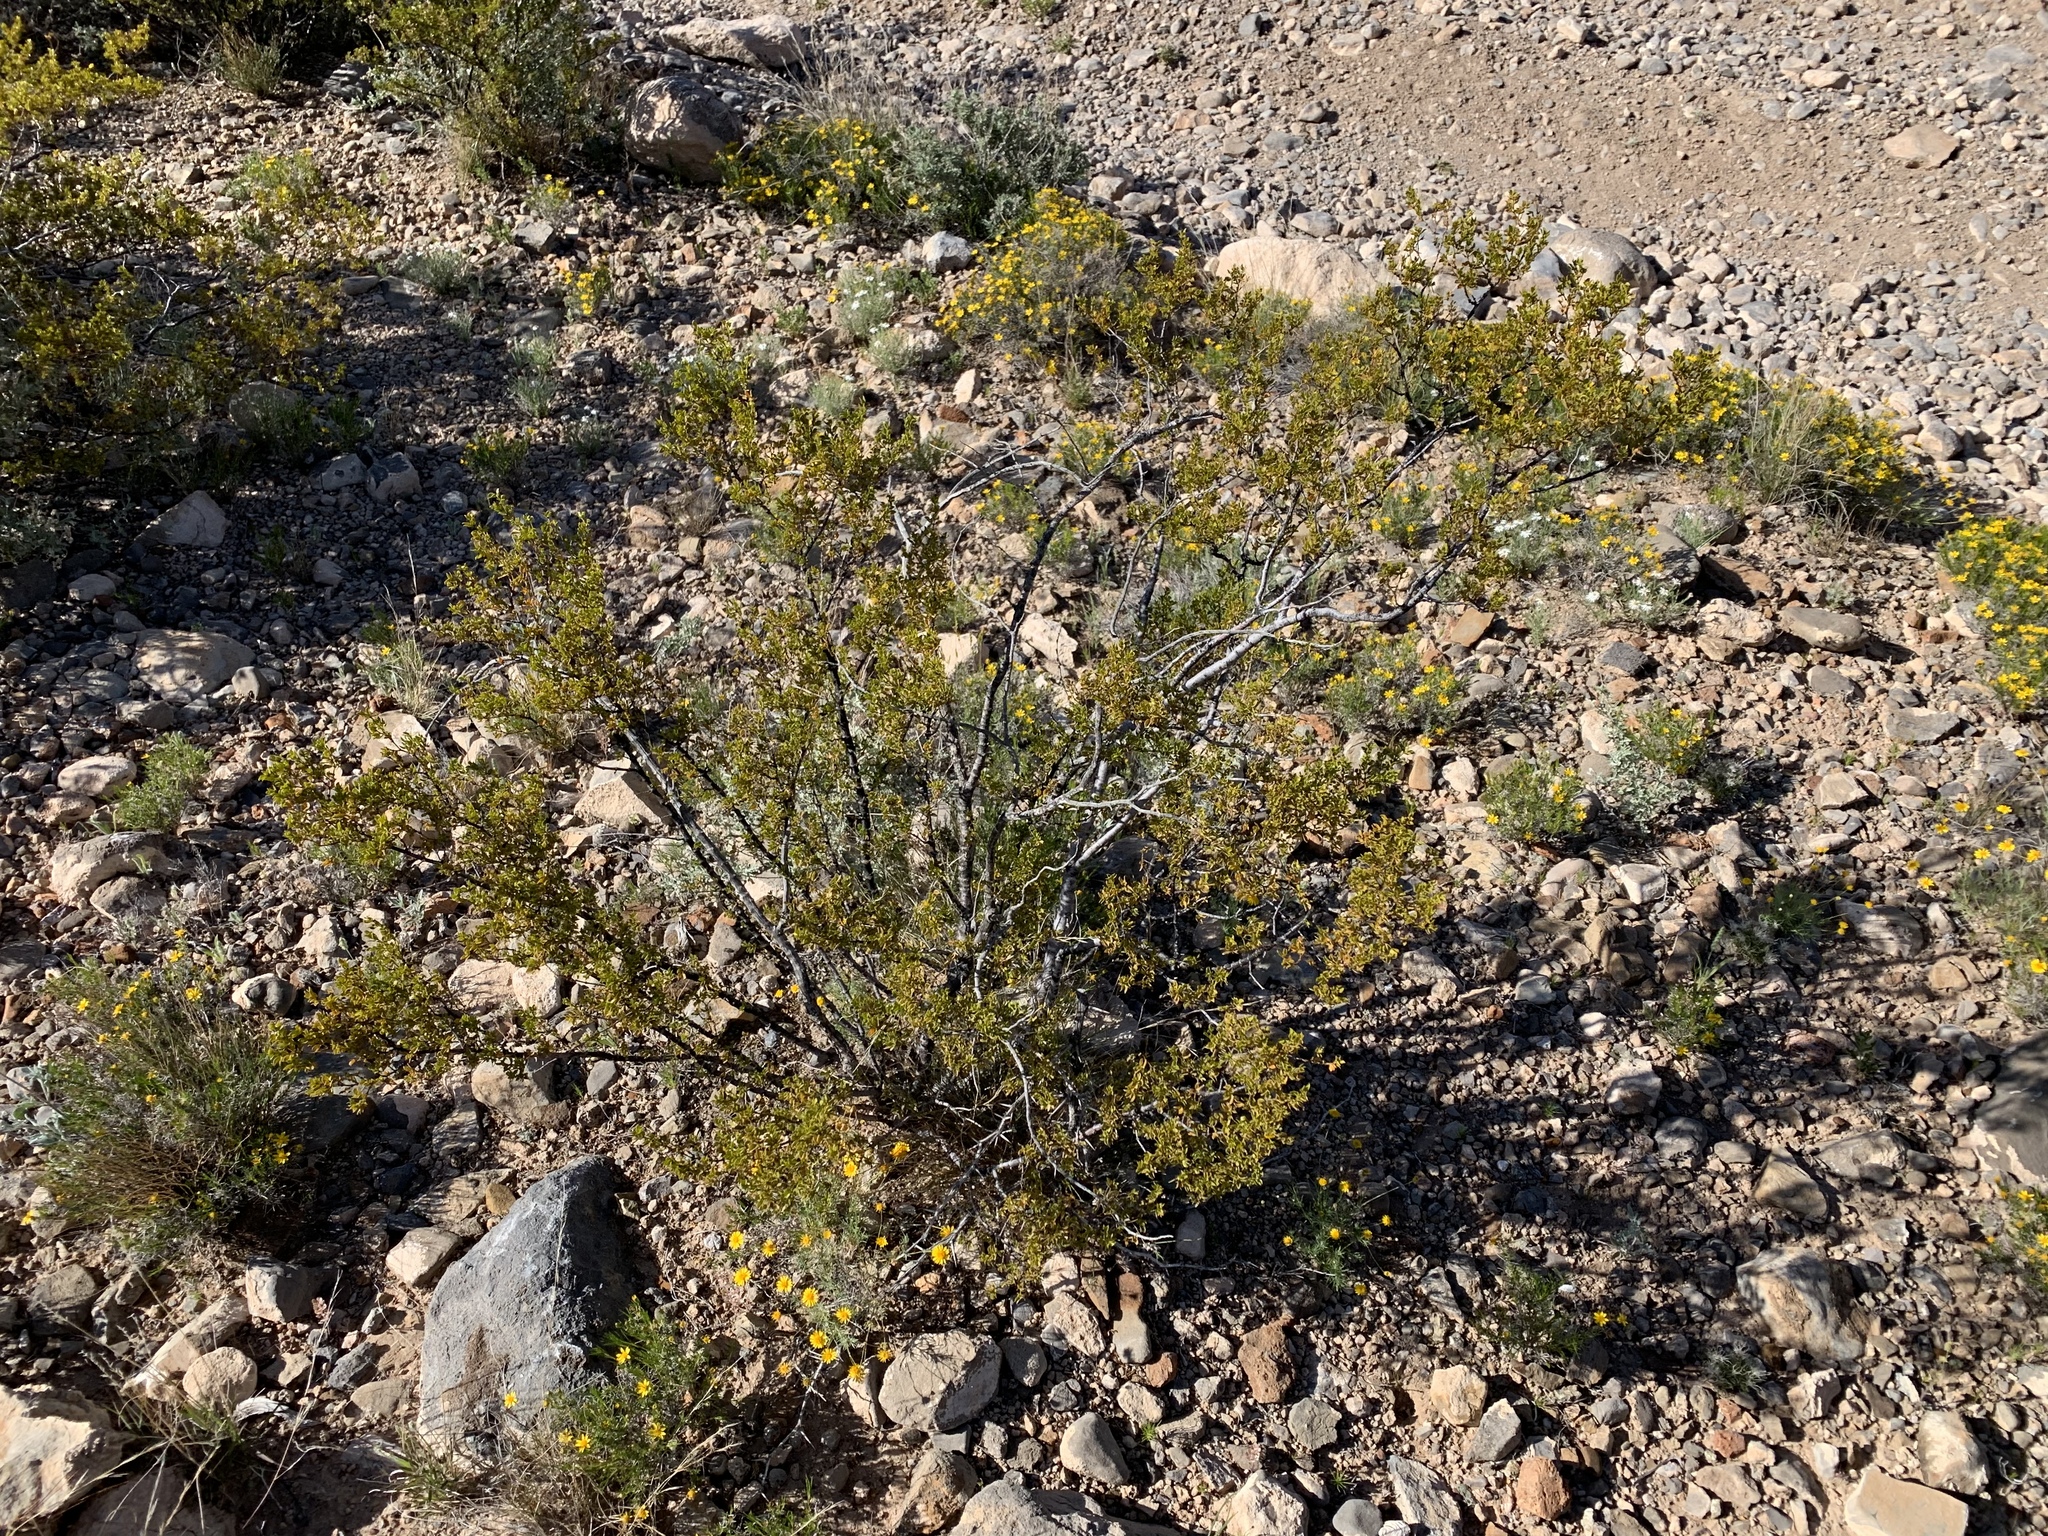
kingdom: Plantae
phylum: Tracheophyta
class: Magnoliopsida
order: Zygophyllales
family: Zygophyllaceae
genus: Larrea
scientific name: Larrea tridentata
